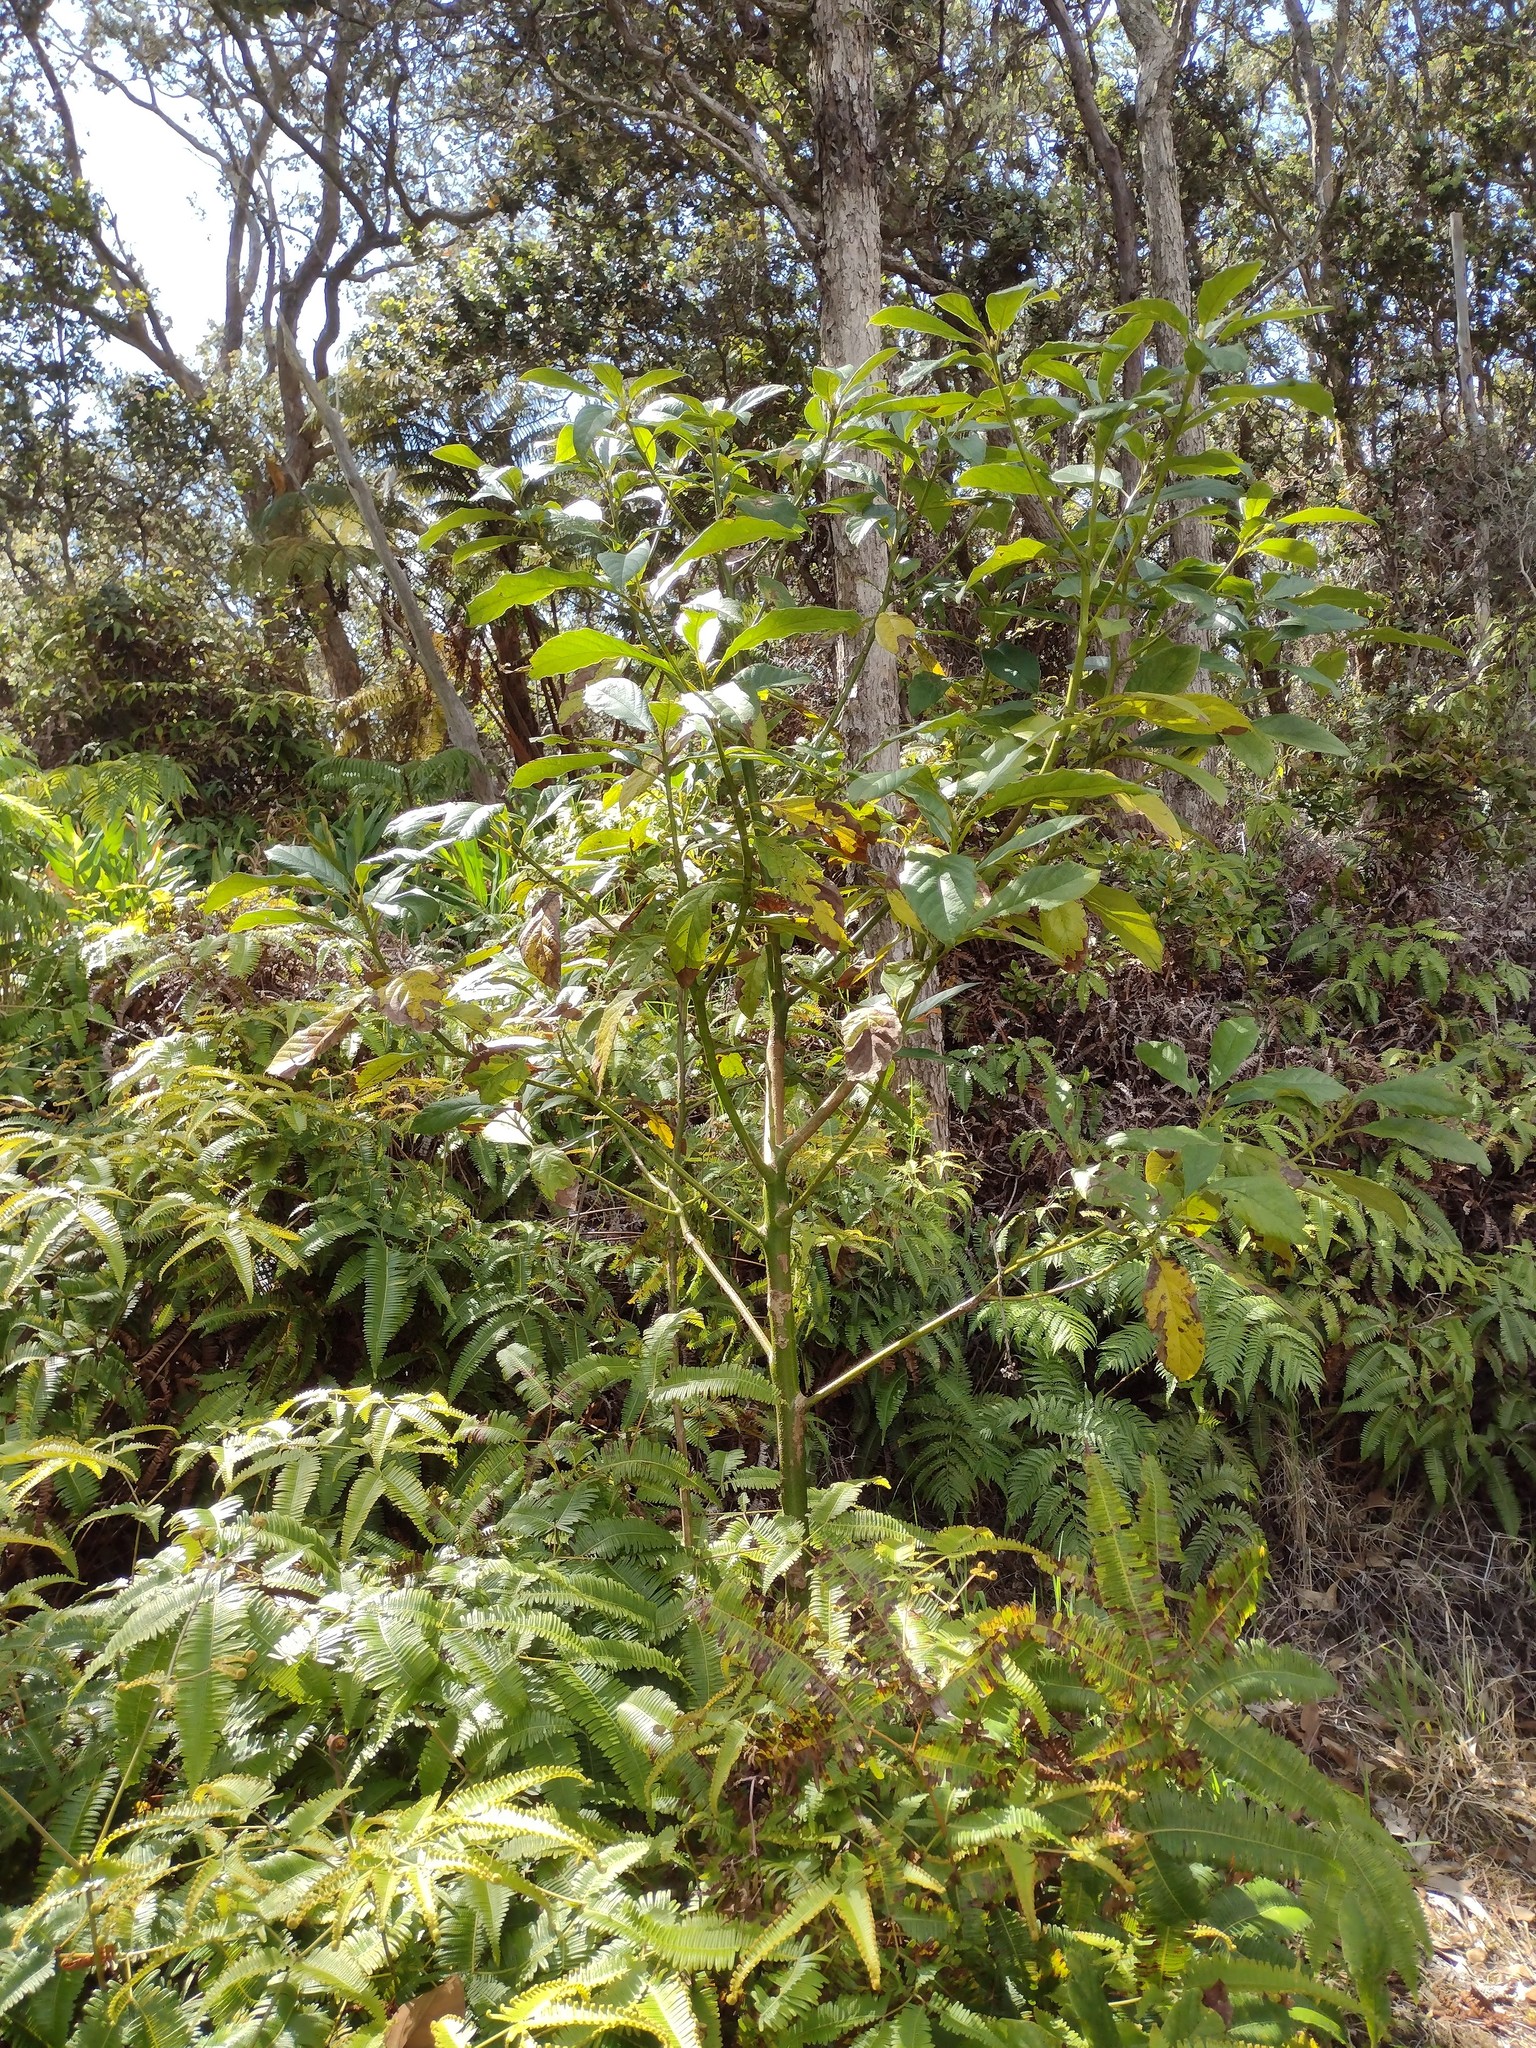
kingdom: Plantae
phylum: Tracheophyta
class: Magnoliopsida
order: Laurales
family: Lauraceae
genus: Persea
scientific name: Persea americana
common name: Avocado
